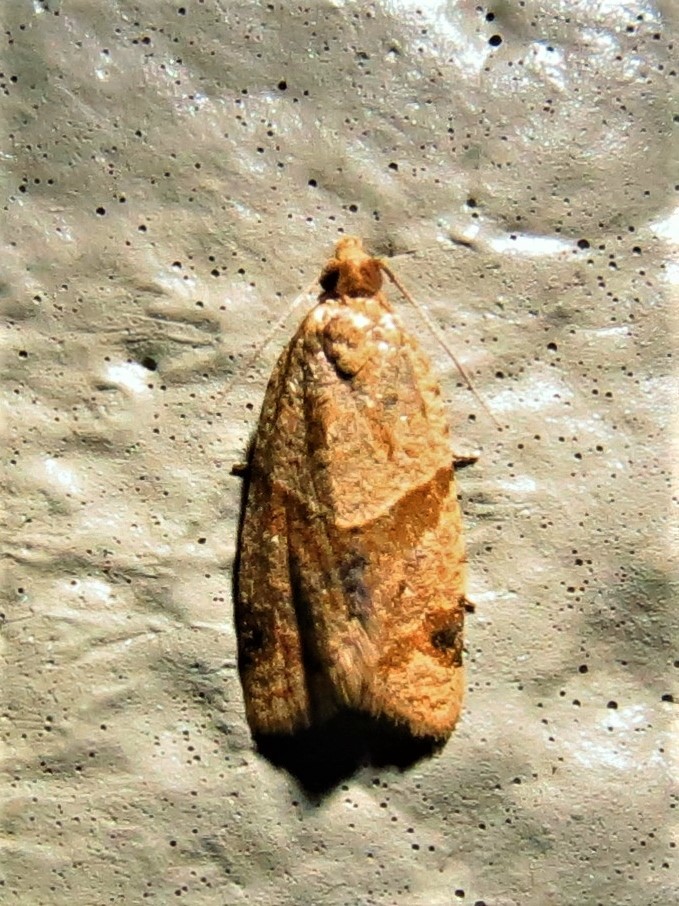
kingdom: Animalia
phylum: Arthropoda
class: Insecta
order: Lepidoptera
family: Tortricidae
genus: Clepsis
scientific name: Clepsis peritana
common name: Garden tortrix
